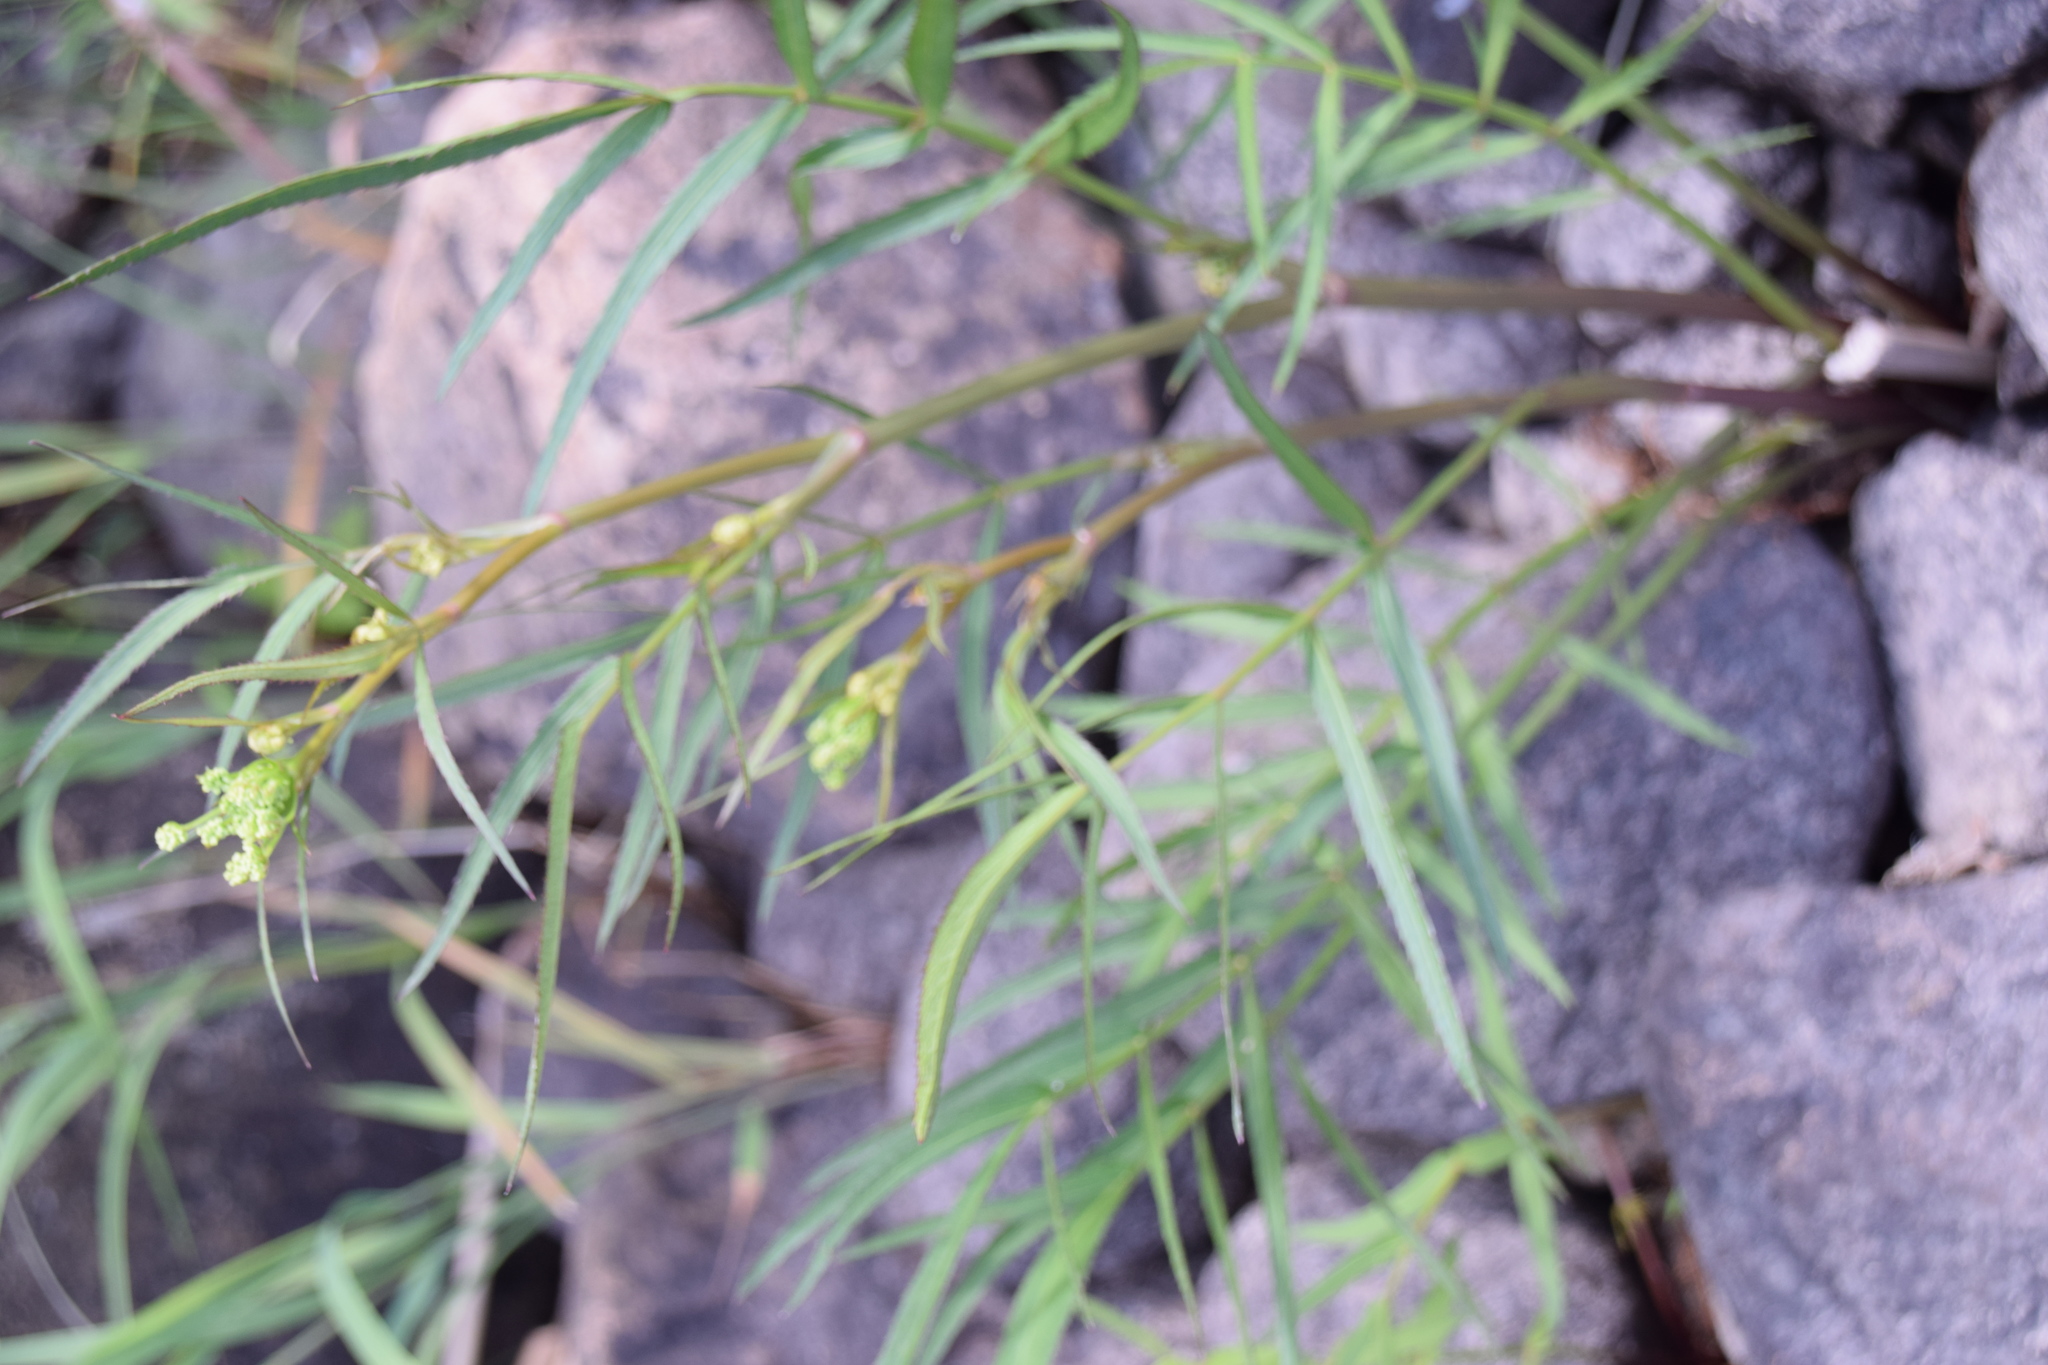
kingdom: Plantae
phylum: Tracheophyta
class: Magnoliopsida
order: Apiales
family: Apiaceae
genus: Sium
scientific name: Sium suave
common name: Hemlock water-parsnip
